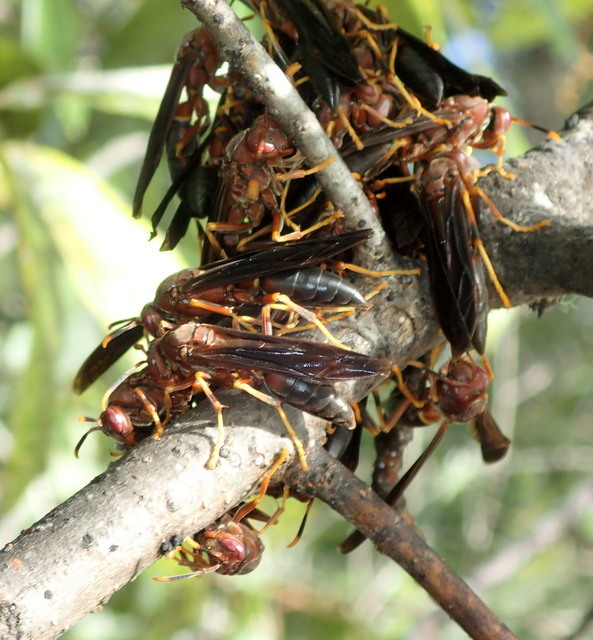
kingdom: Animalia
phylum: Arthropoda
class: Insecta
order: Hymenoptera
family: Eumenidae
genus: Polistes
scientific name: Polistes annularis
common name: Ringed paper wasp
